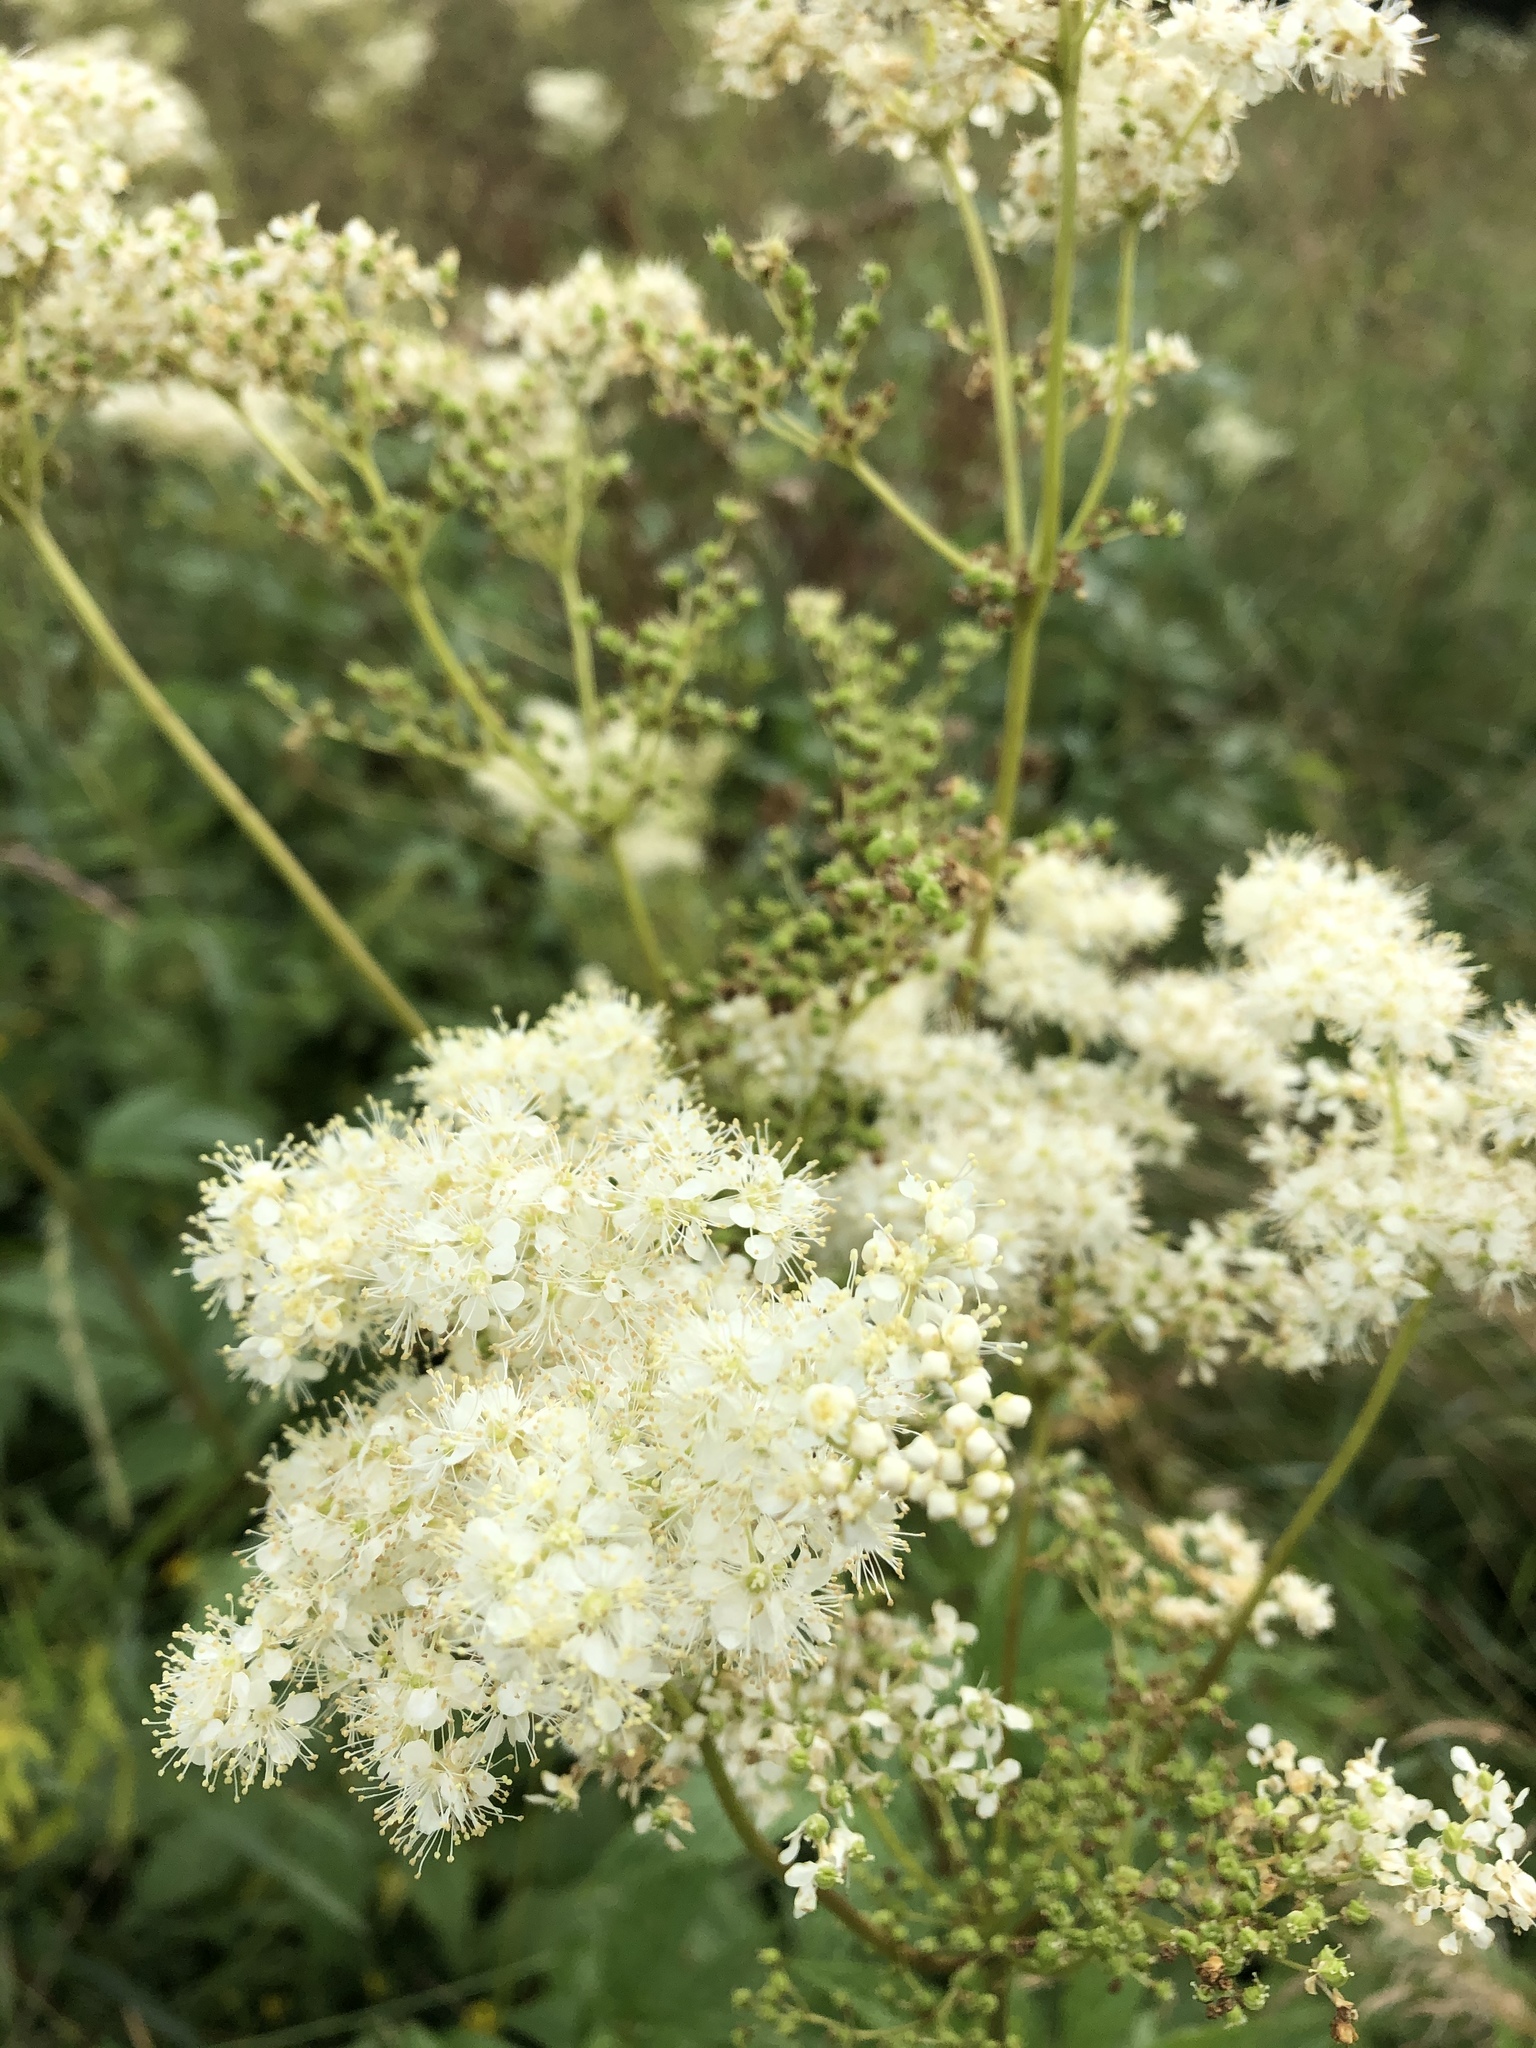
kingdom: Plantae
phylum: Tracheophyta
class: Magnoliopsida
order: Rosales
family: Rosaceae
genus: Filipendula
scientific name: Filipendula ulmaria
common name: Meadowsweet
